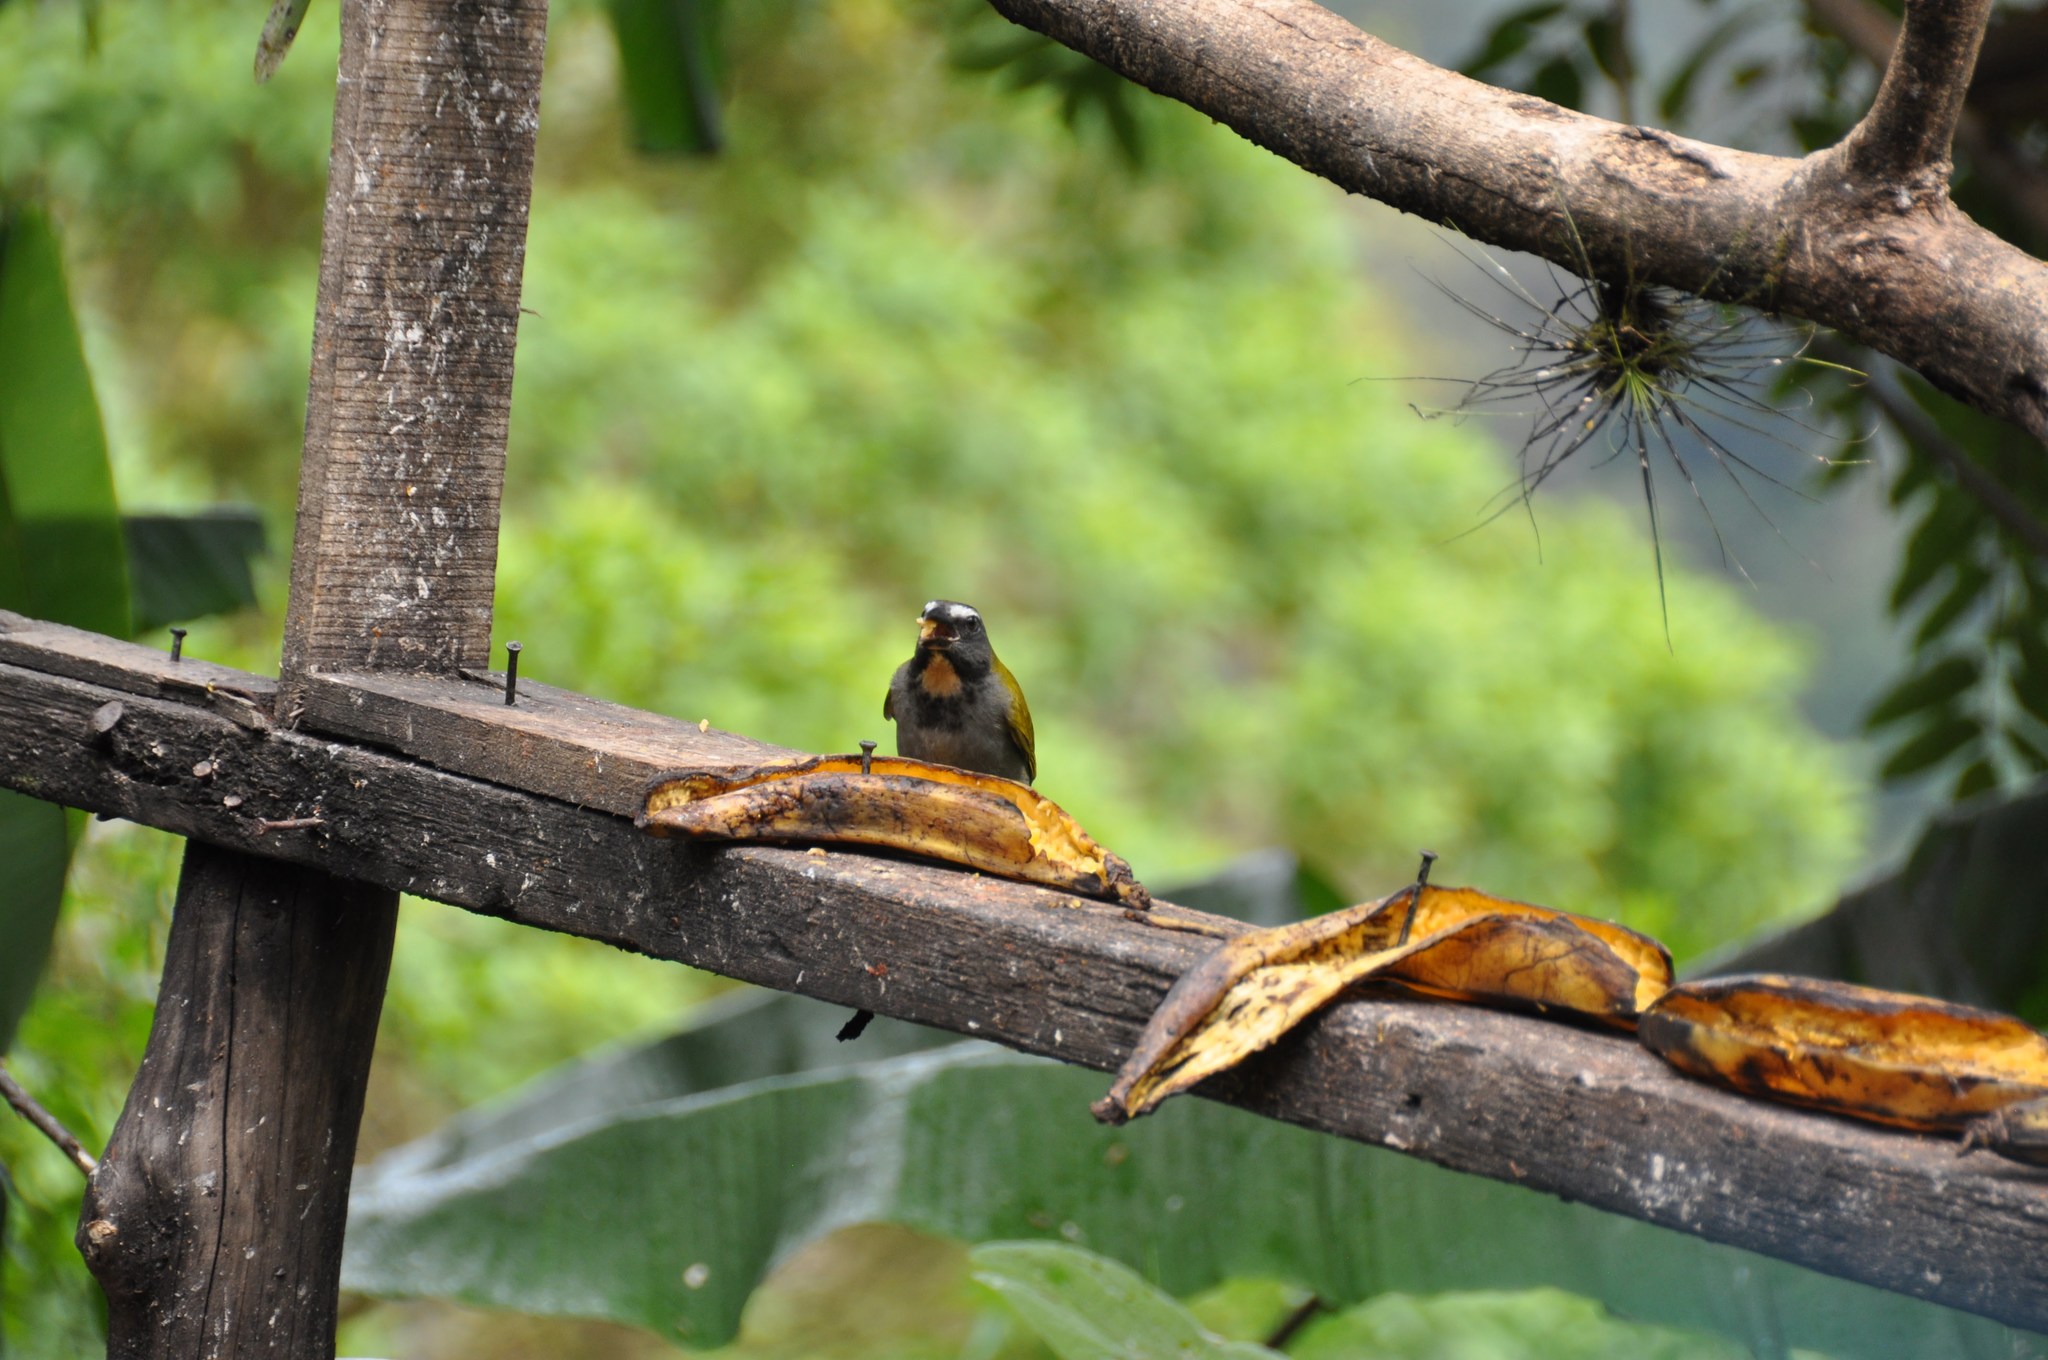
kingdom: Animalia
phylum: Chordata
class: Aves
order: Passeriformes
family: Thraupidae
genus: Saltator
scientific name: Saltator maximus
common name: Buff-throated saltator
